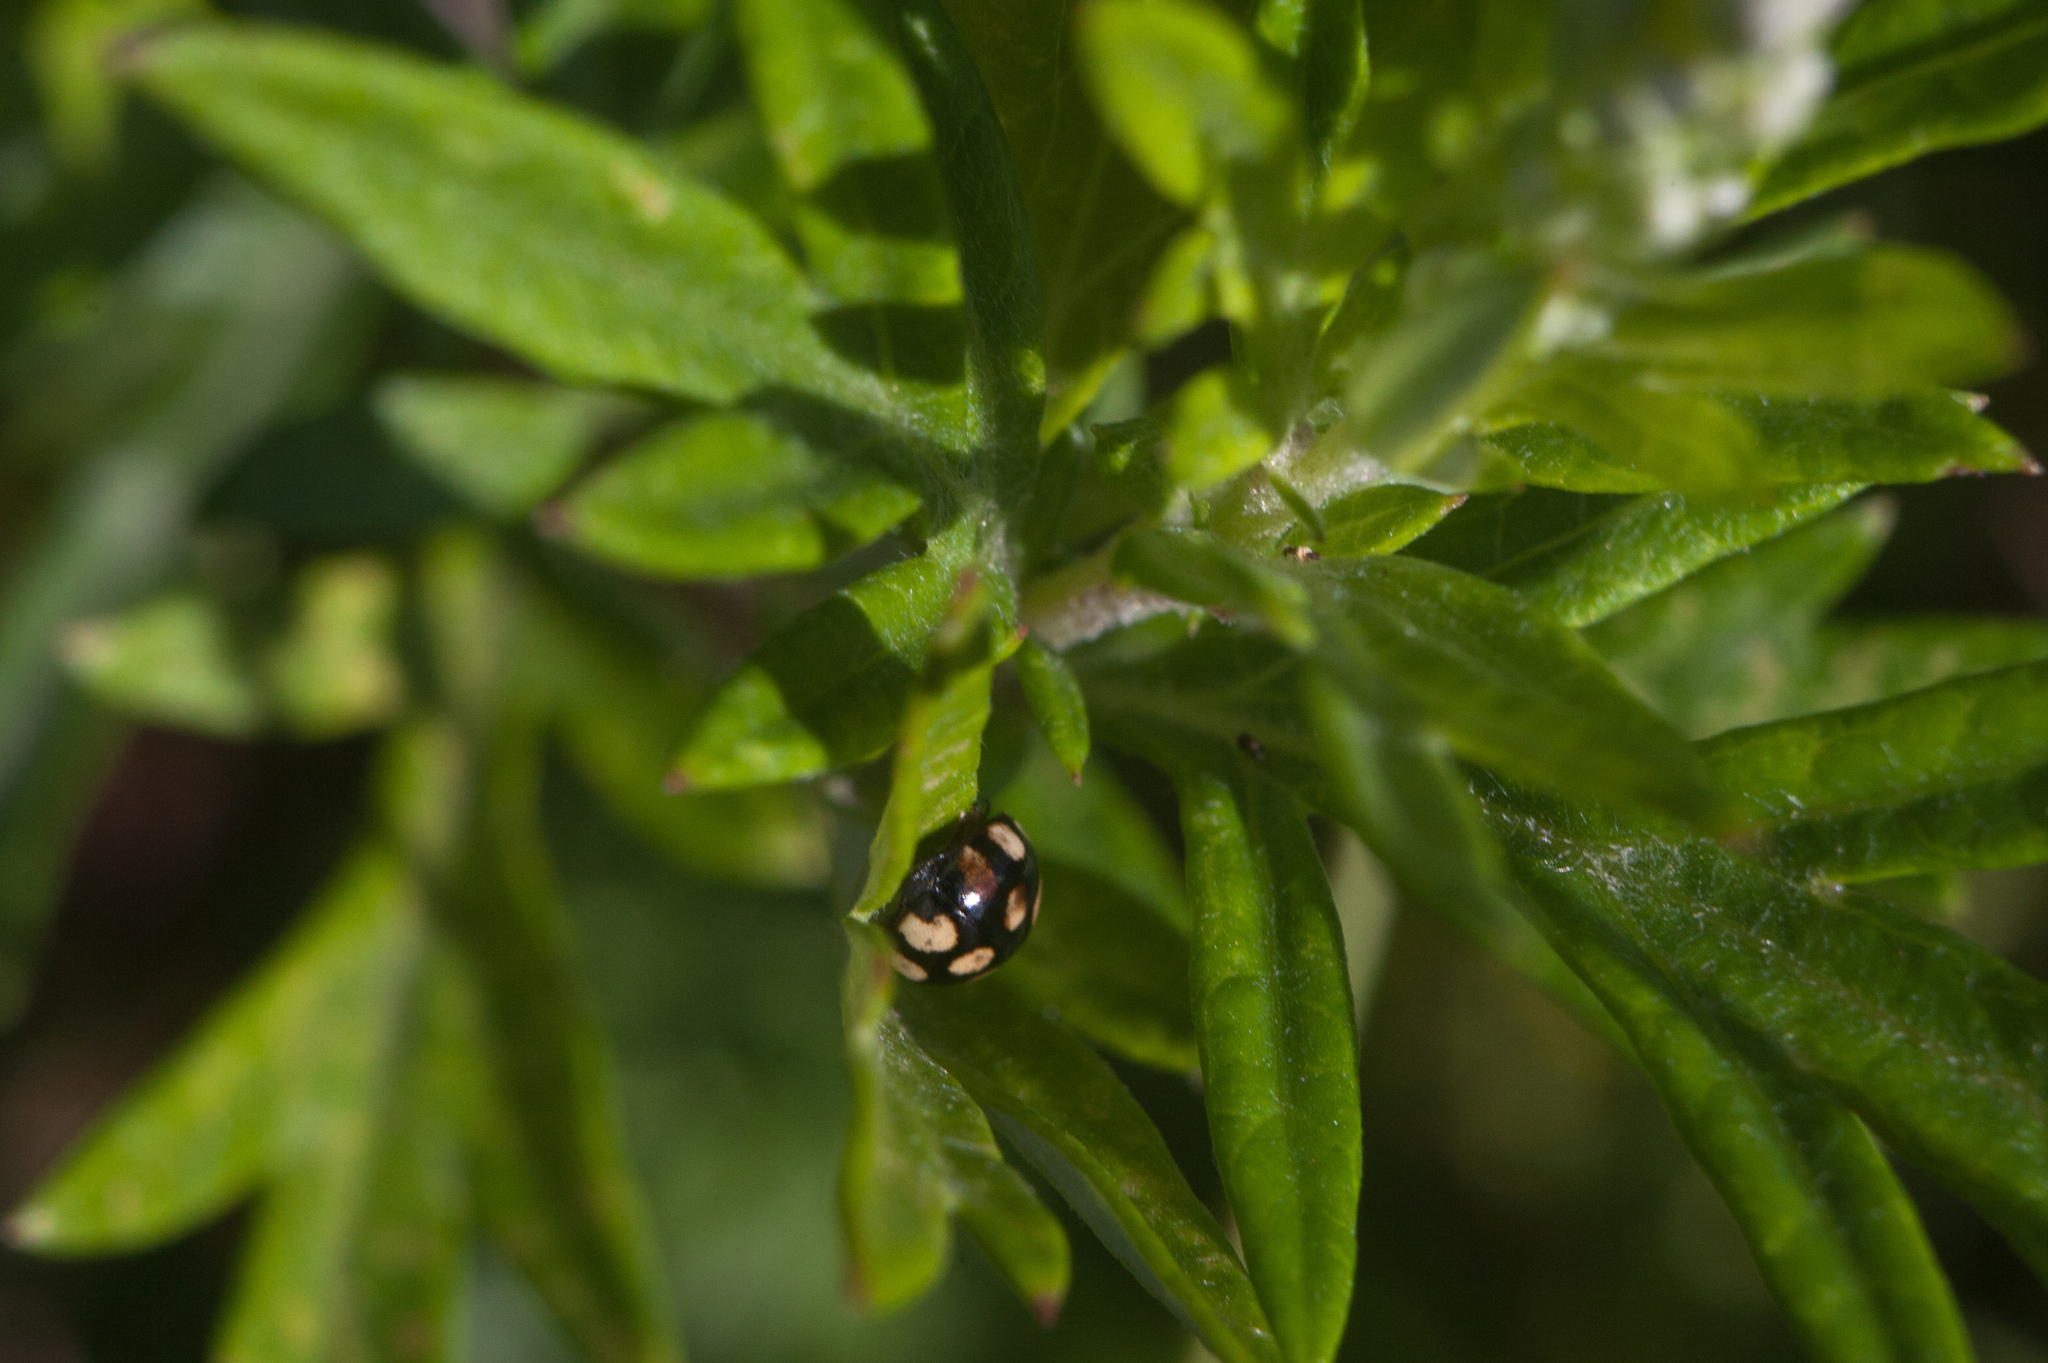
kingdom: Animalia
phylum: Arthropoda
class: Insecta
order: Coleoptera
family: Coccinellidae
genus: Coccinula
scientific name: Coccinula quatuordecimpustulata
